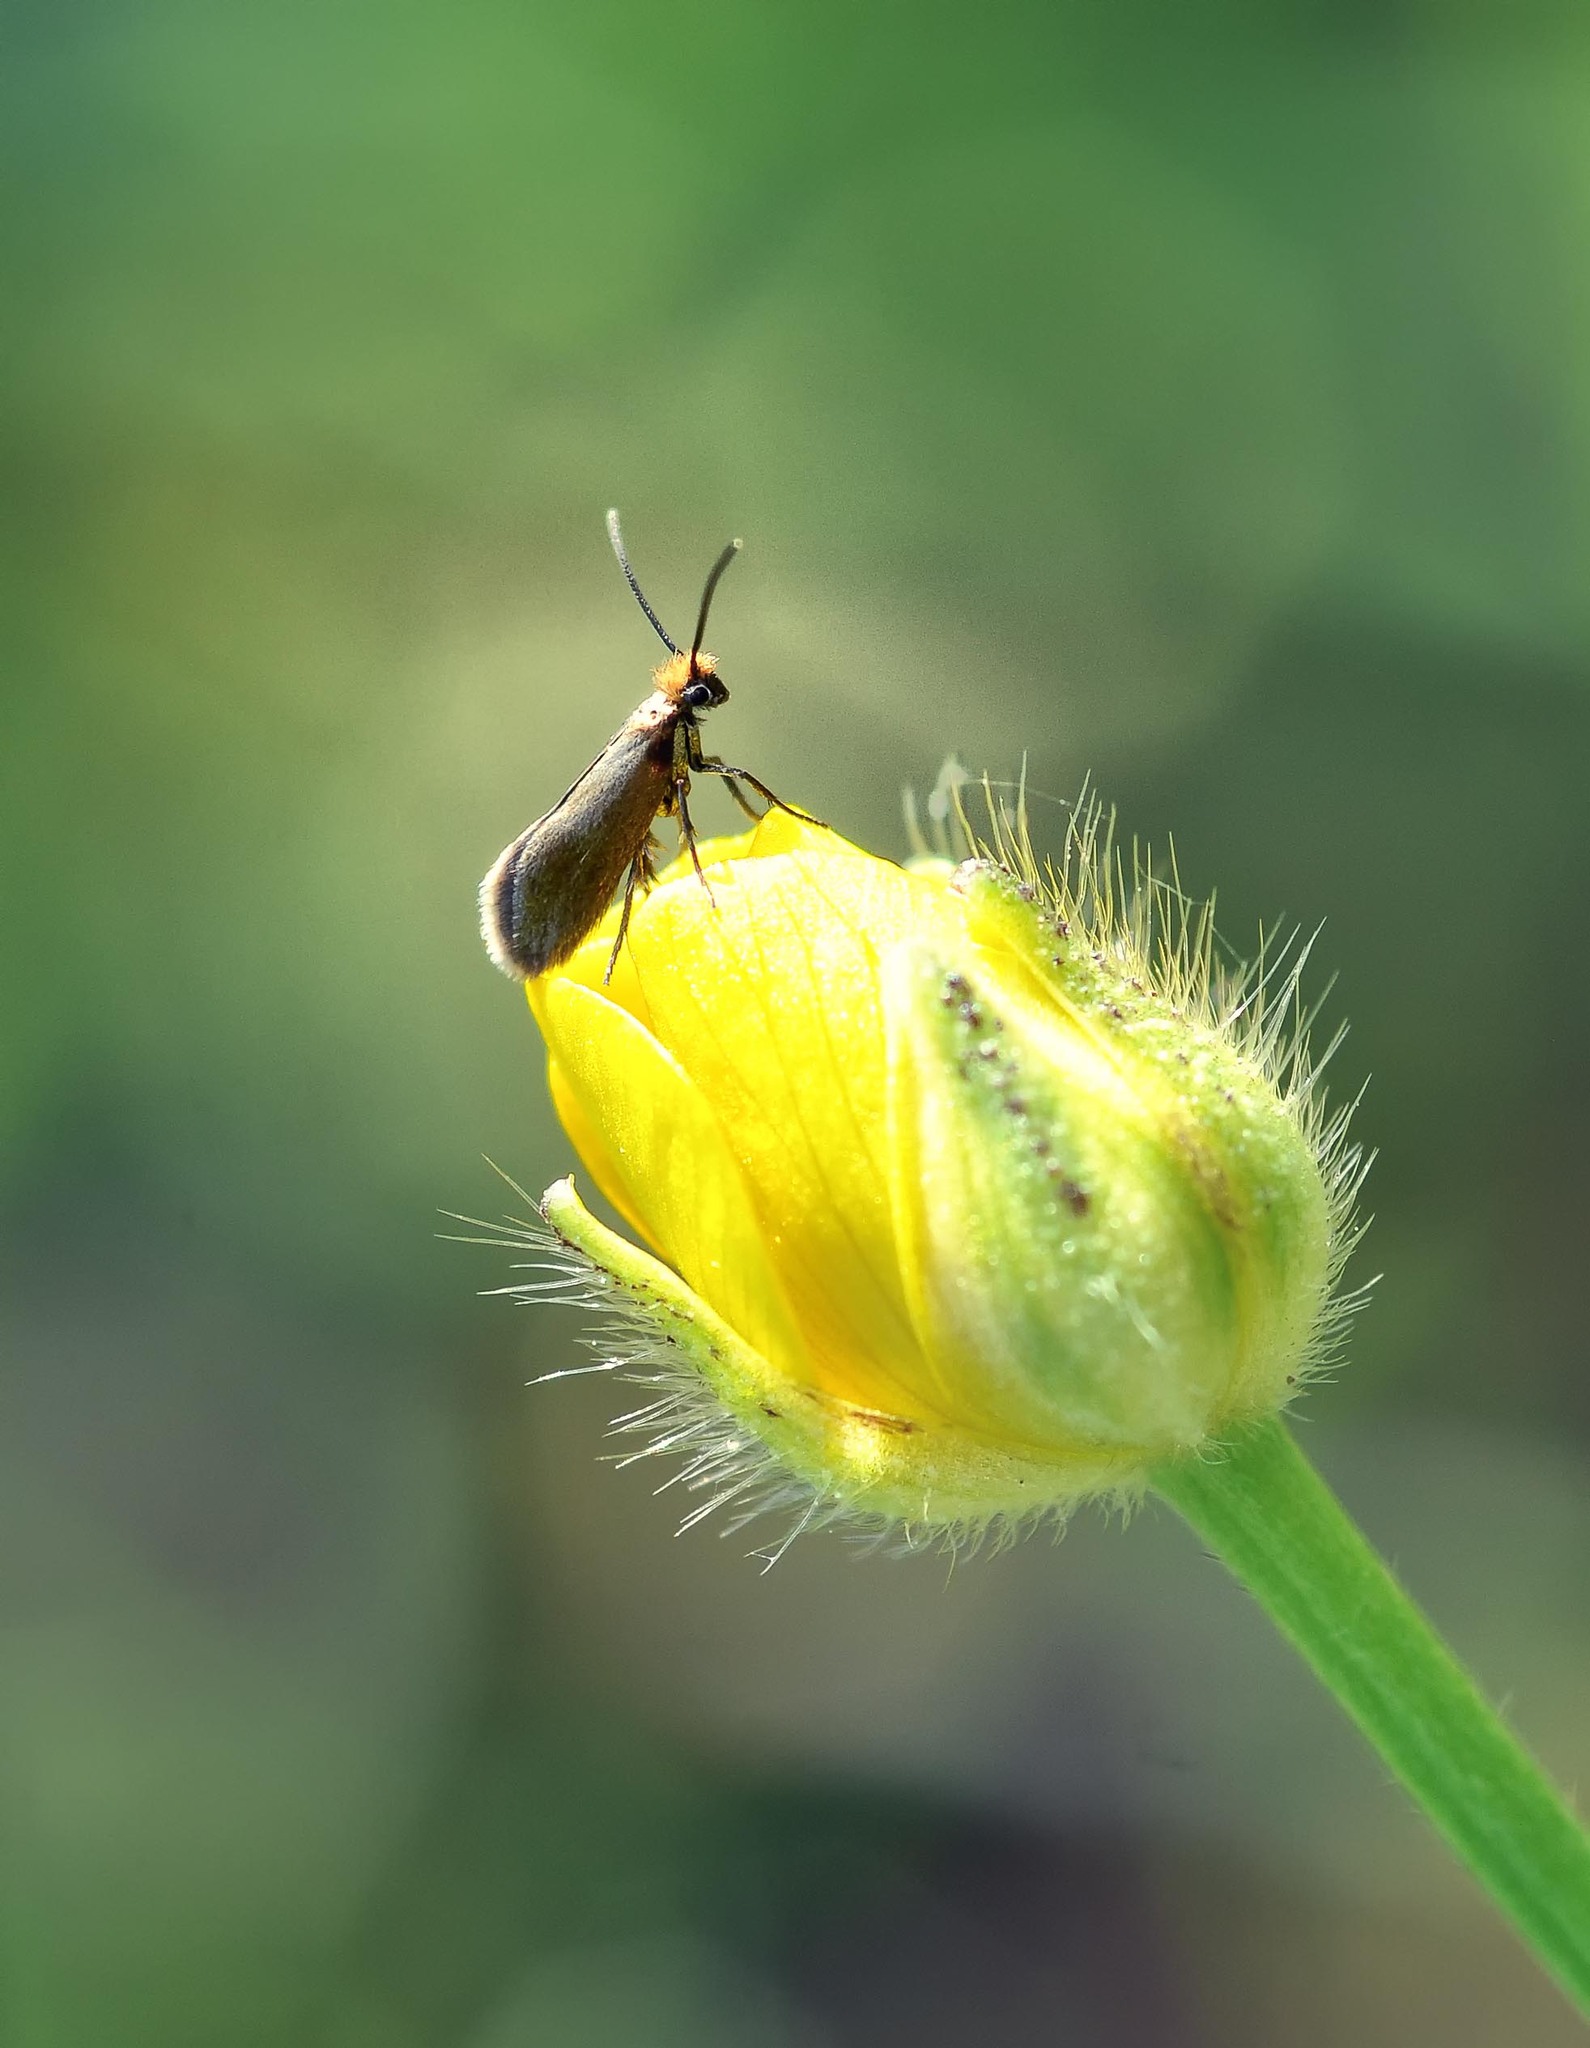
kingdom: Animalia
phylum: Arthropoda
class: Insecta
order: Lepidoptera
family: Micropterigidae
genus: Micropterix
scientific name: Micropterix calthella
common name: Plain gold
